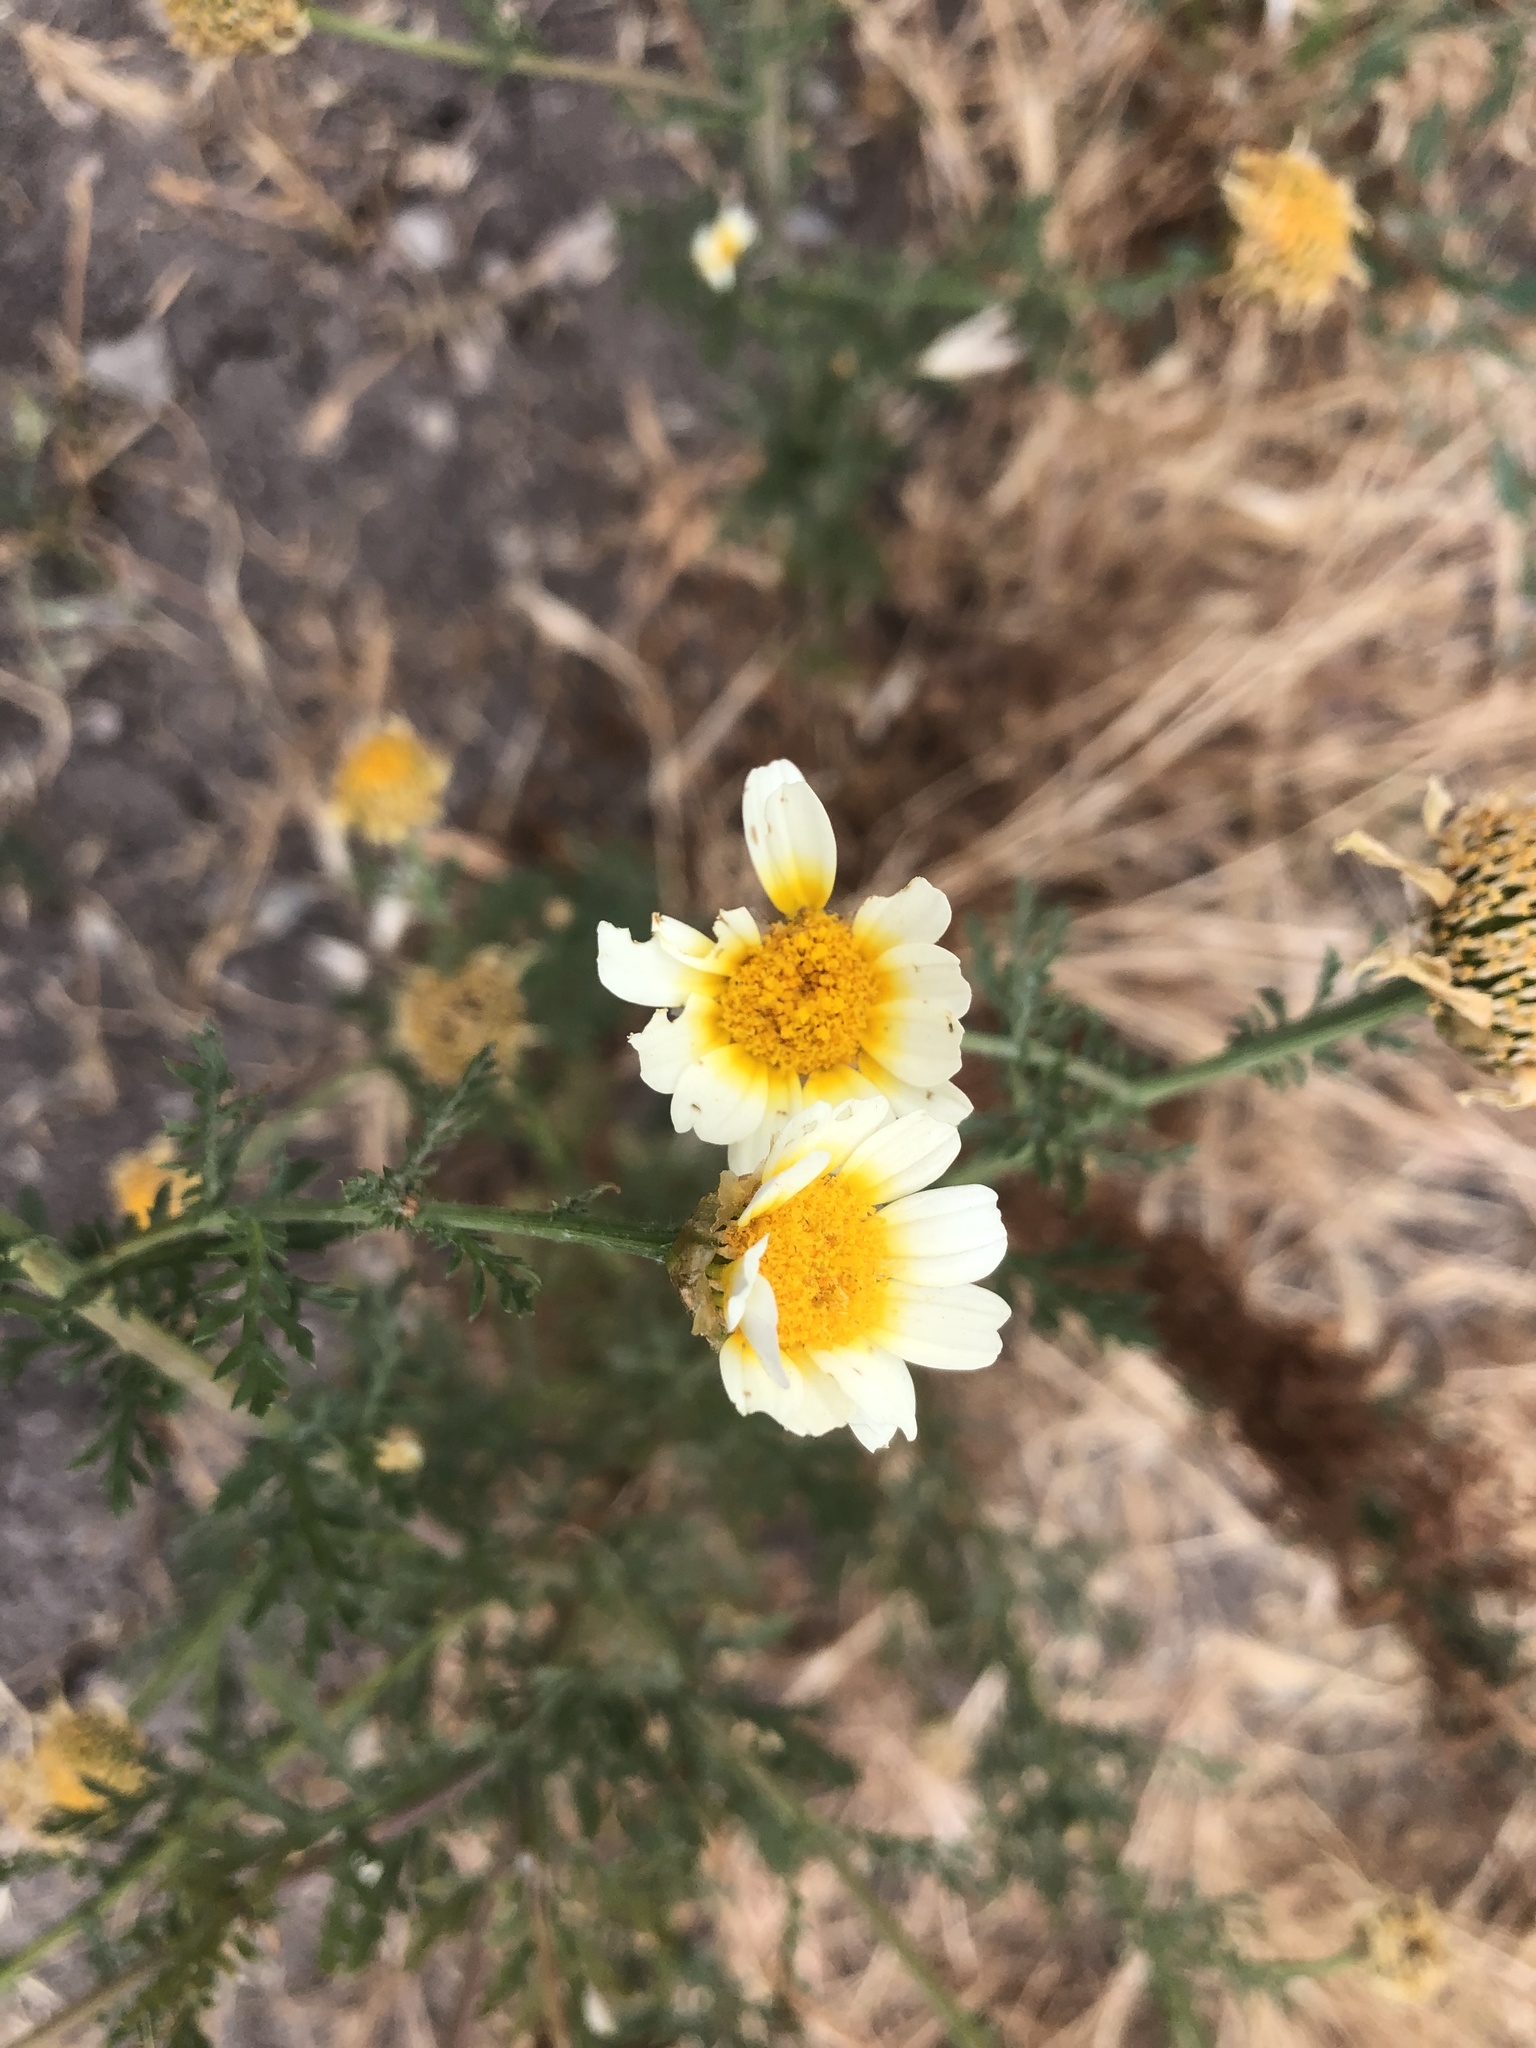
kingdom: Plantae
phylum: Tracheophyta
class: Magnoliopsida
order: Asterales
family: Asteraceae
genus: Glebionis
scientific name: Glebionis coronaria
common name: Crowndaisy
